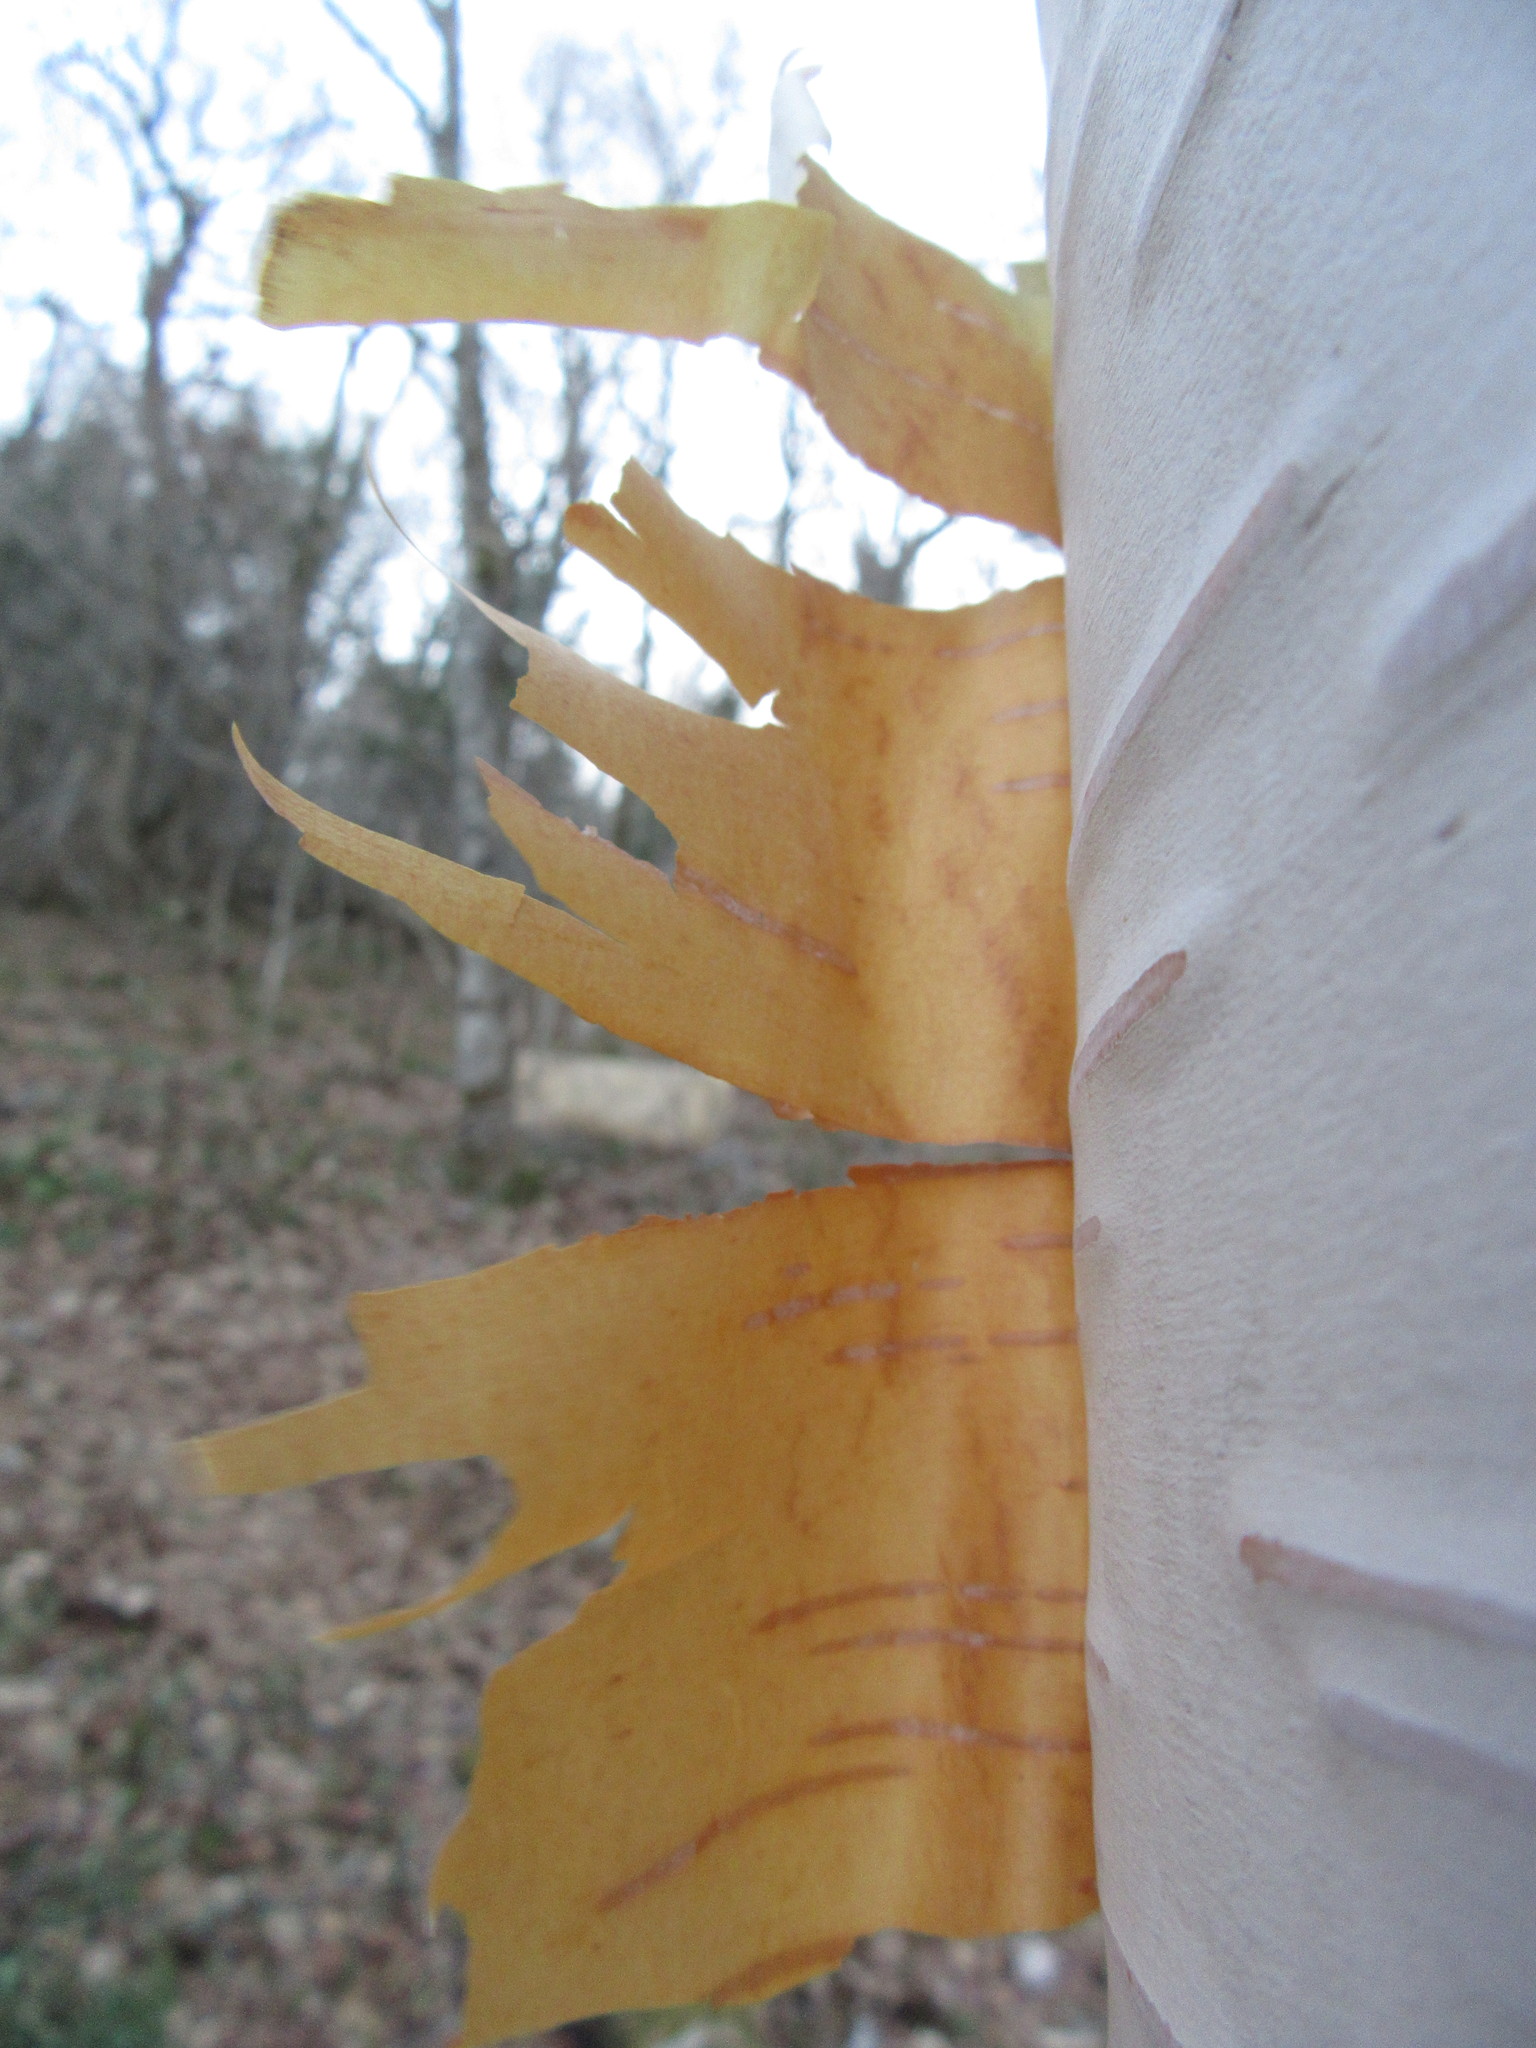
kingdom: Plantae
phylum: Tracheophyta
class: Magnoliopsida
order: Fagales
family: Betulaceae
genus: Betula
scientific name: Betula papyrifera
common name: Paper birch
